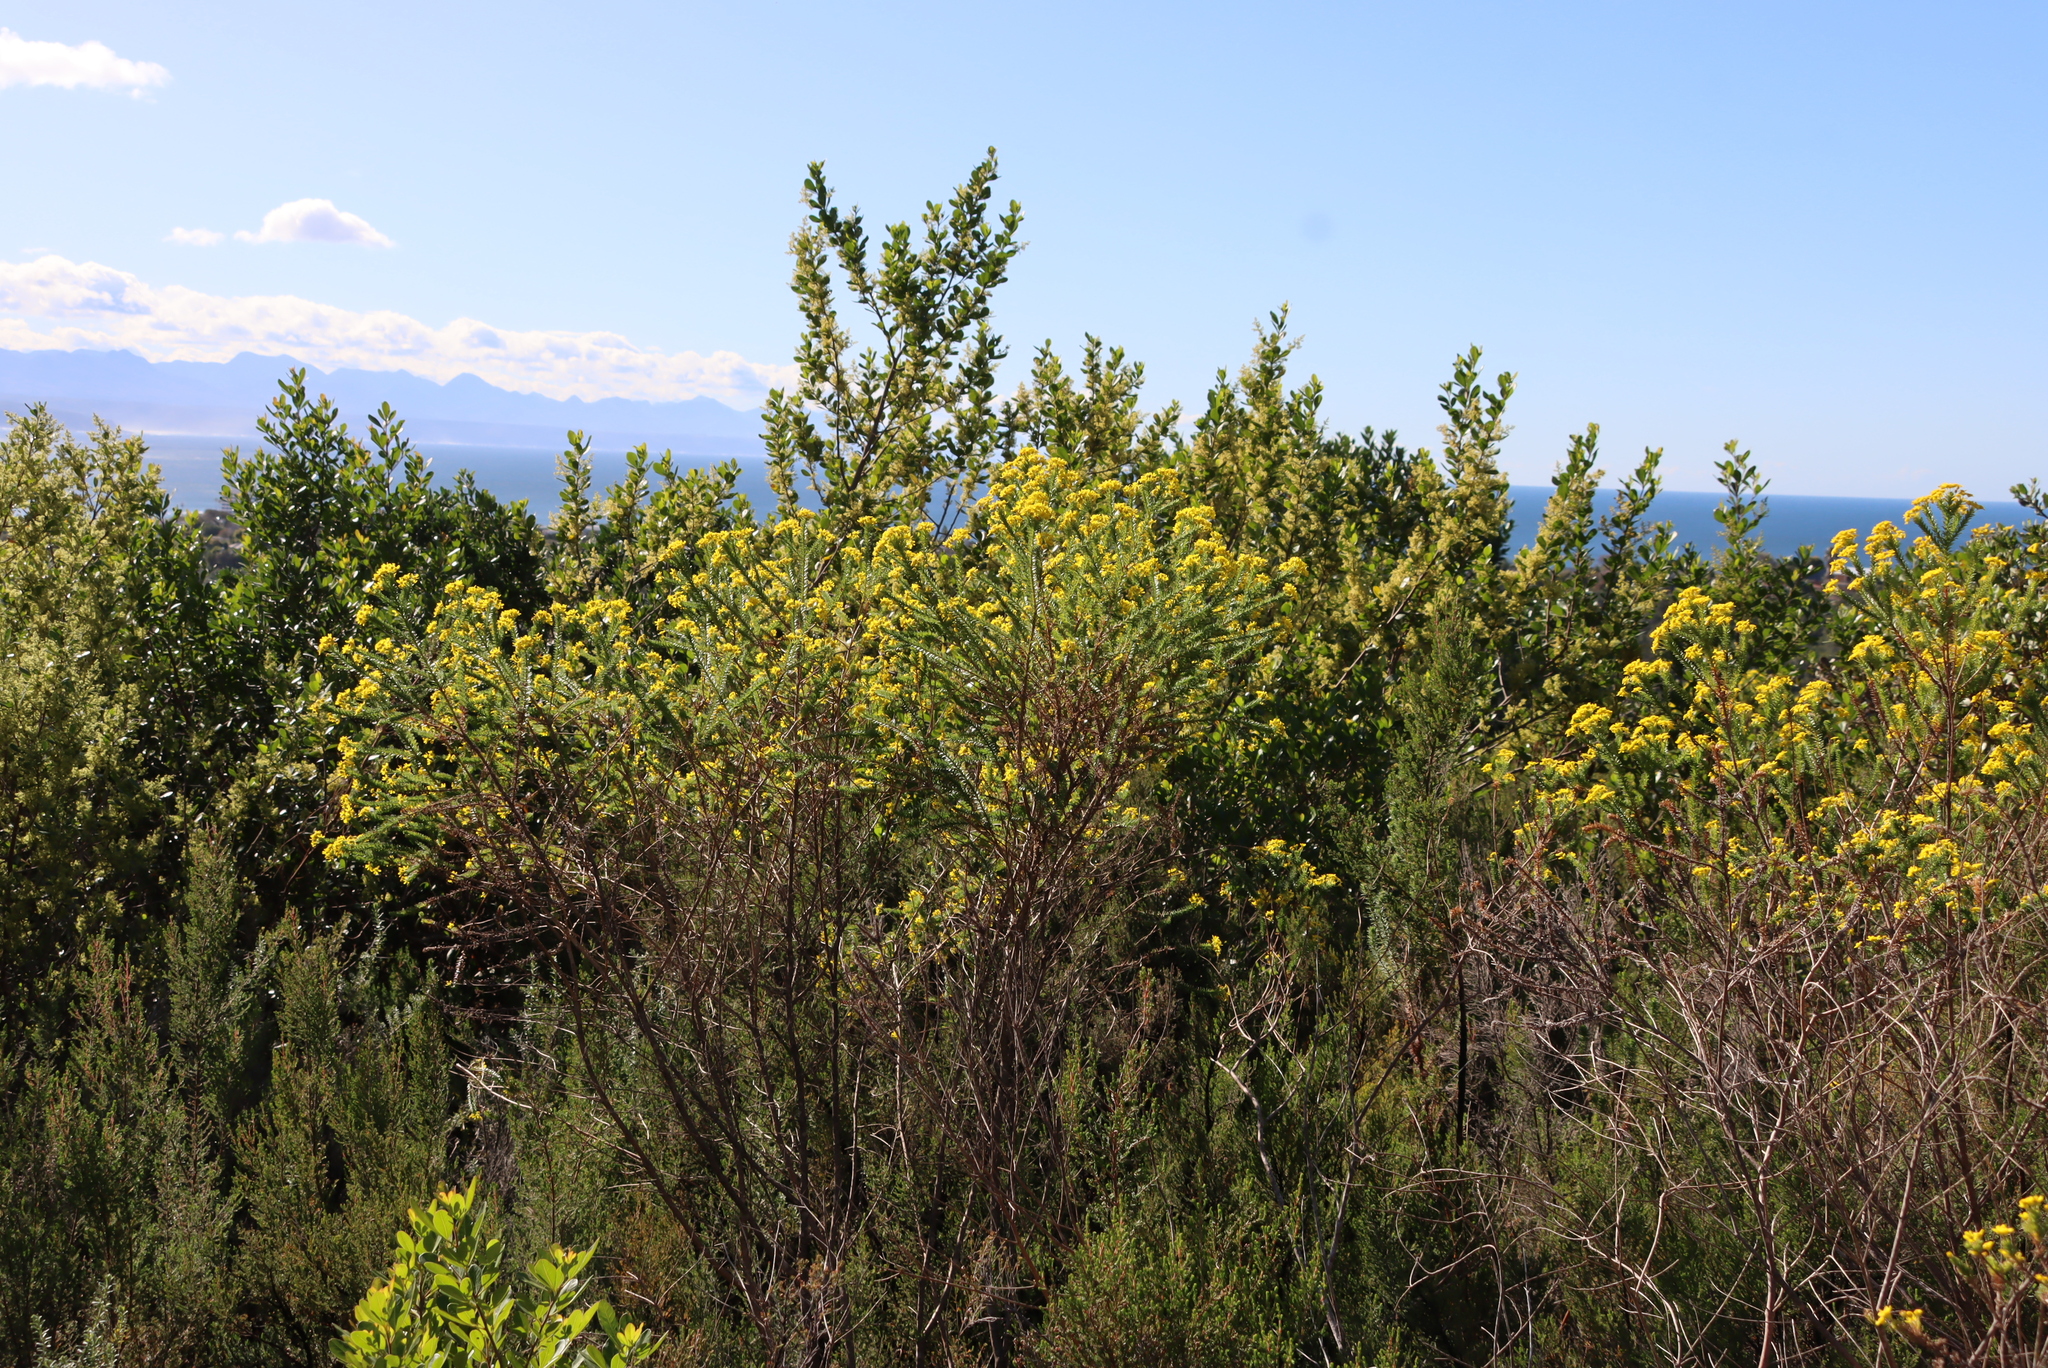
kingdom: Plantae
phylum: Tracheophyta
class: Magnoliopsida
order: Asterales
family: Asteraceae
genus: Euryops
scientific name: Euryops virgineus
